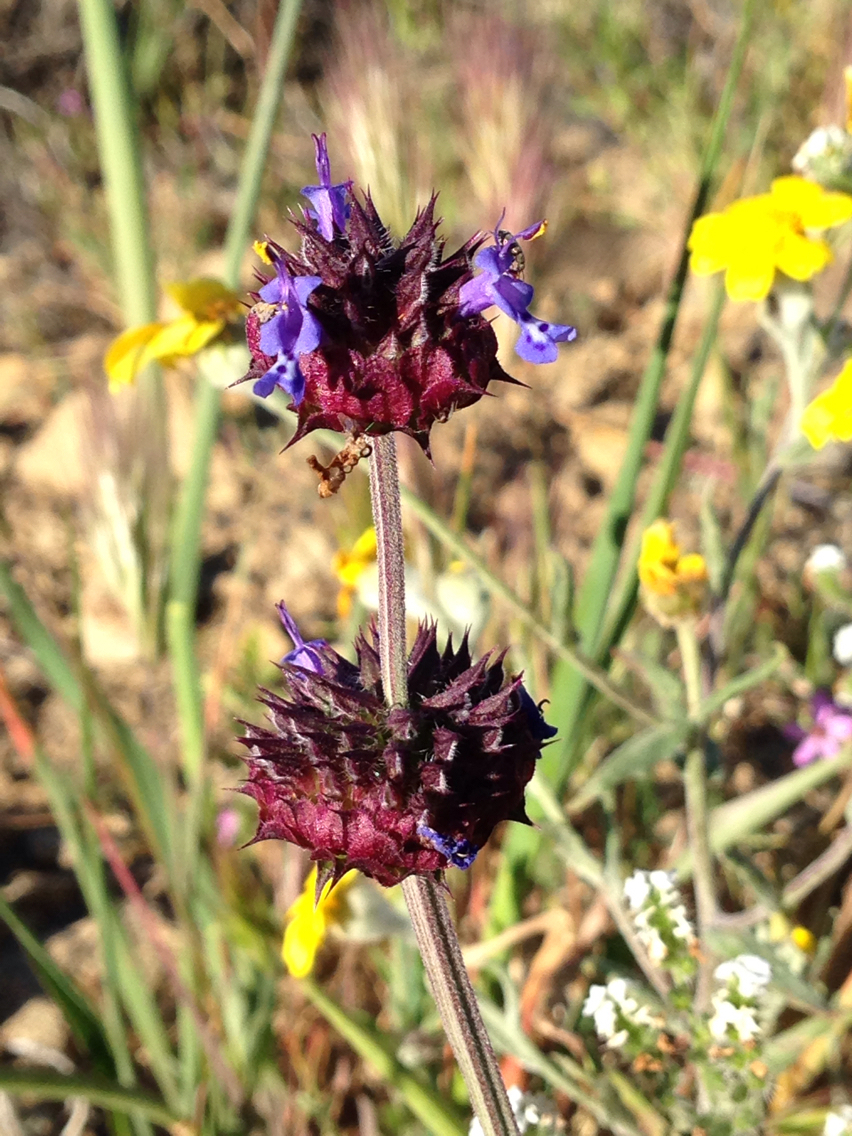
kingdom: Plantae
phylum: Tracheophyta
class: Magnoliopsida
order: Lamiales
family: Lamiaceae
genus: Salvia
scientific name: Salvia columbariae
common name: Chia
